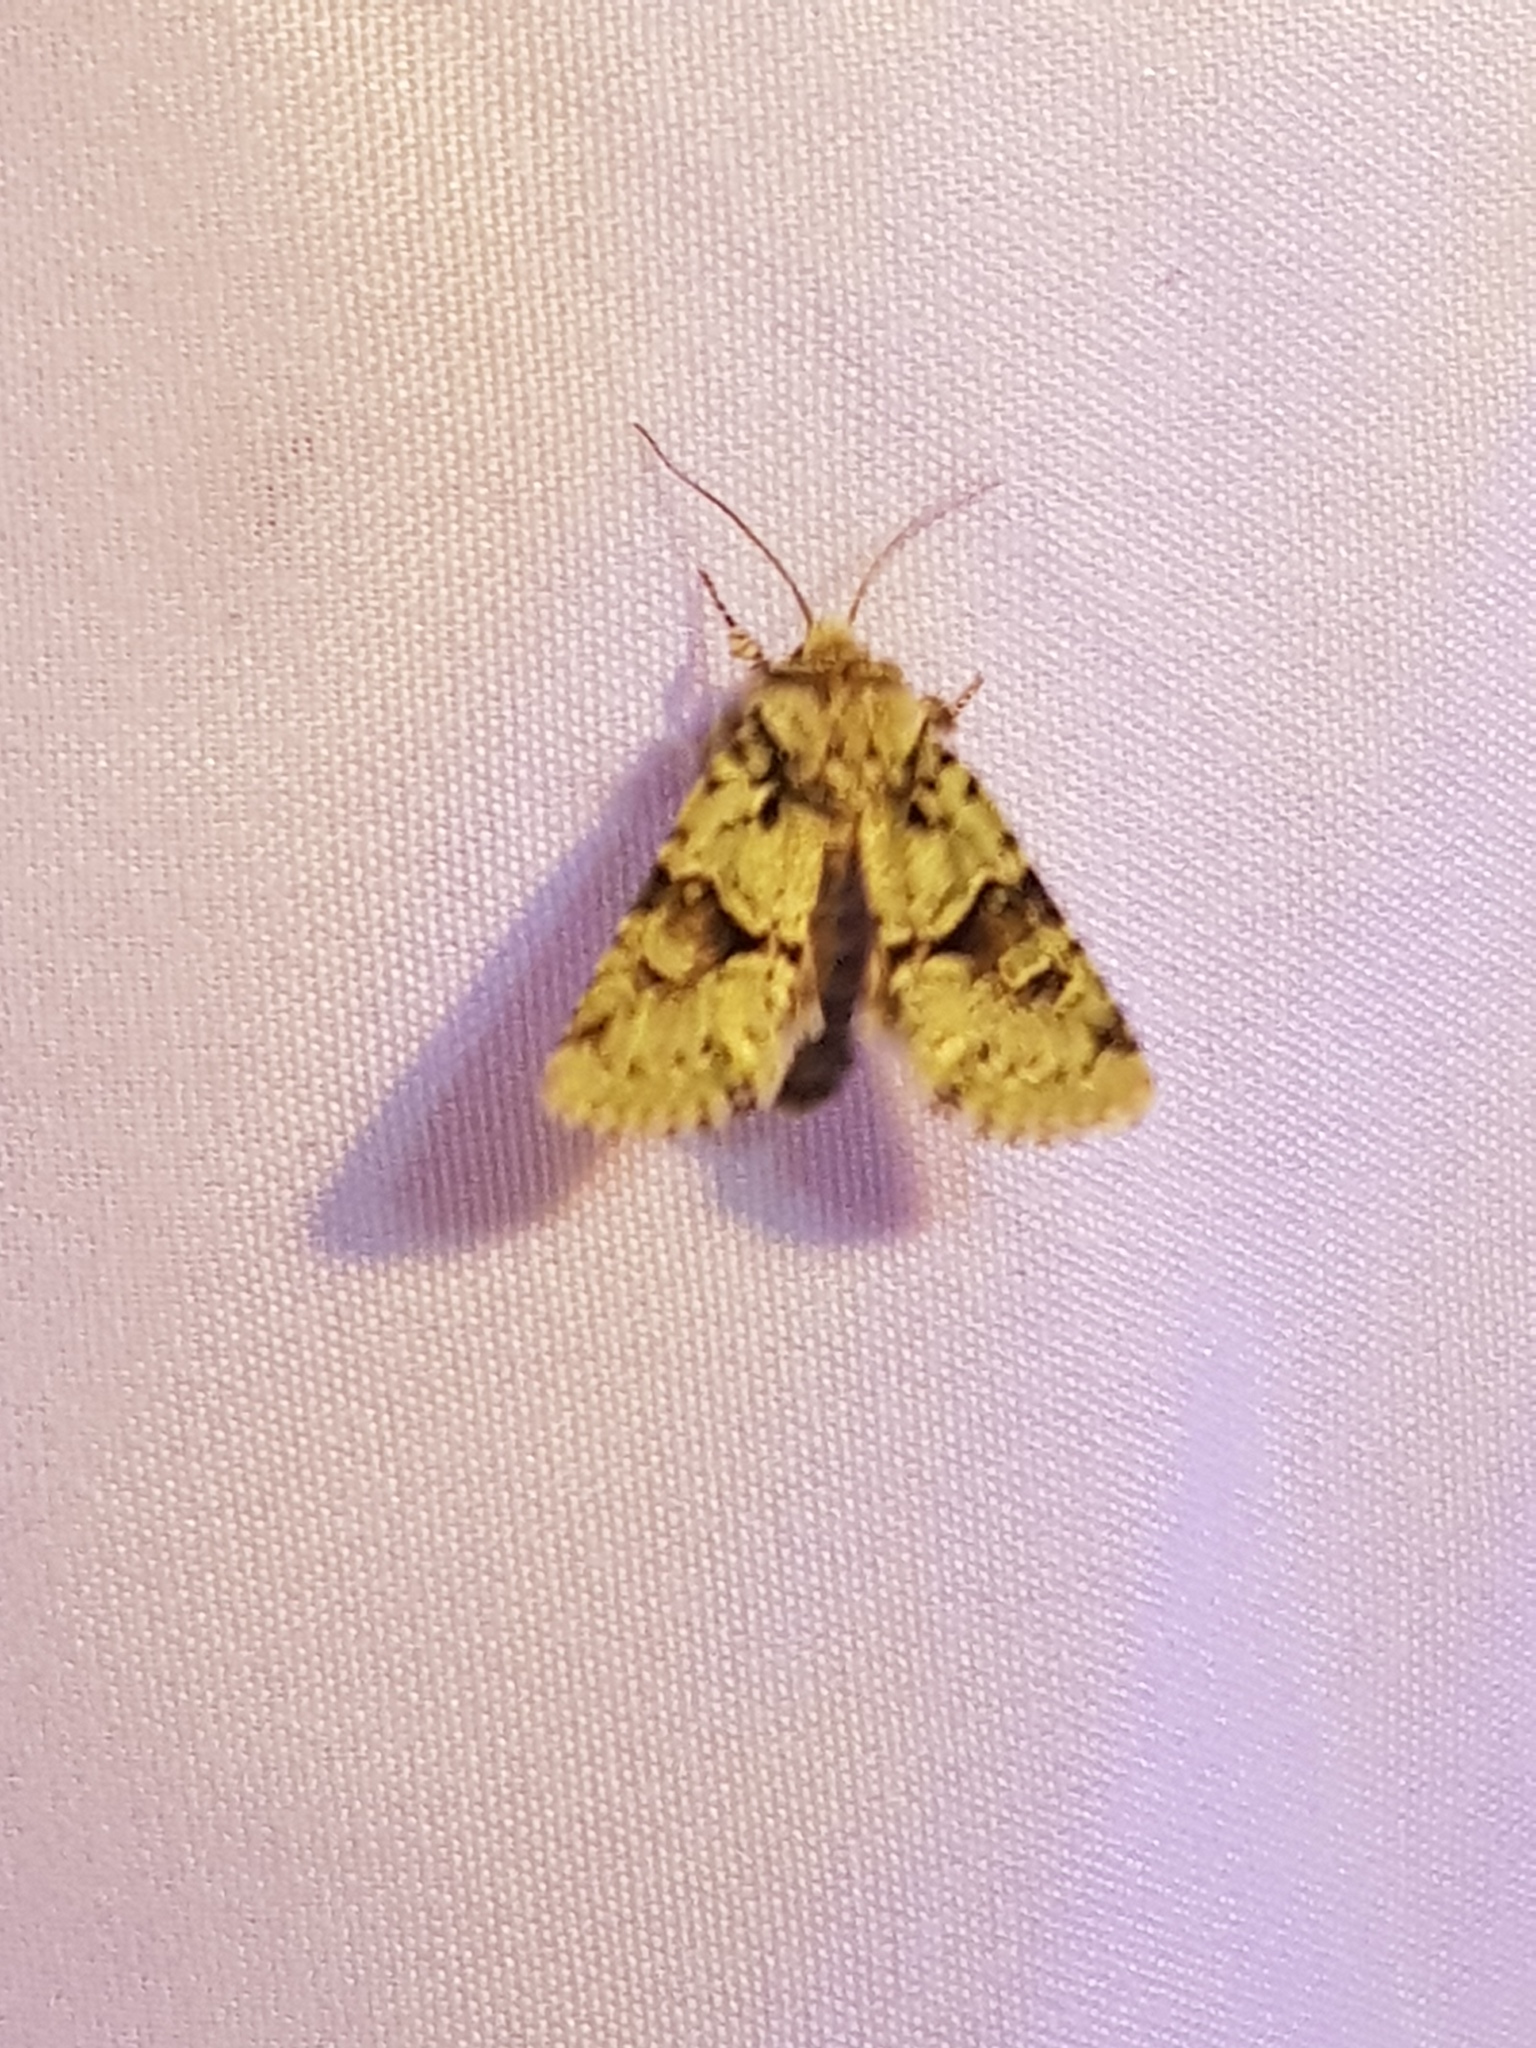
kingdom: Animalia
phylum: Arthropoda
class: Insecta
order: Lepidoptera
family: Noctuidae
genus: Lacinipolia
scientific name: Lacinipolia implicata
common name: Implicit arches
